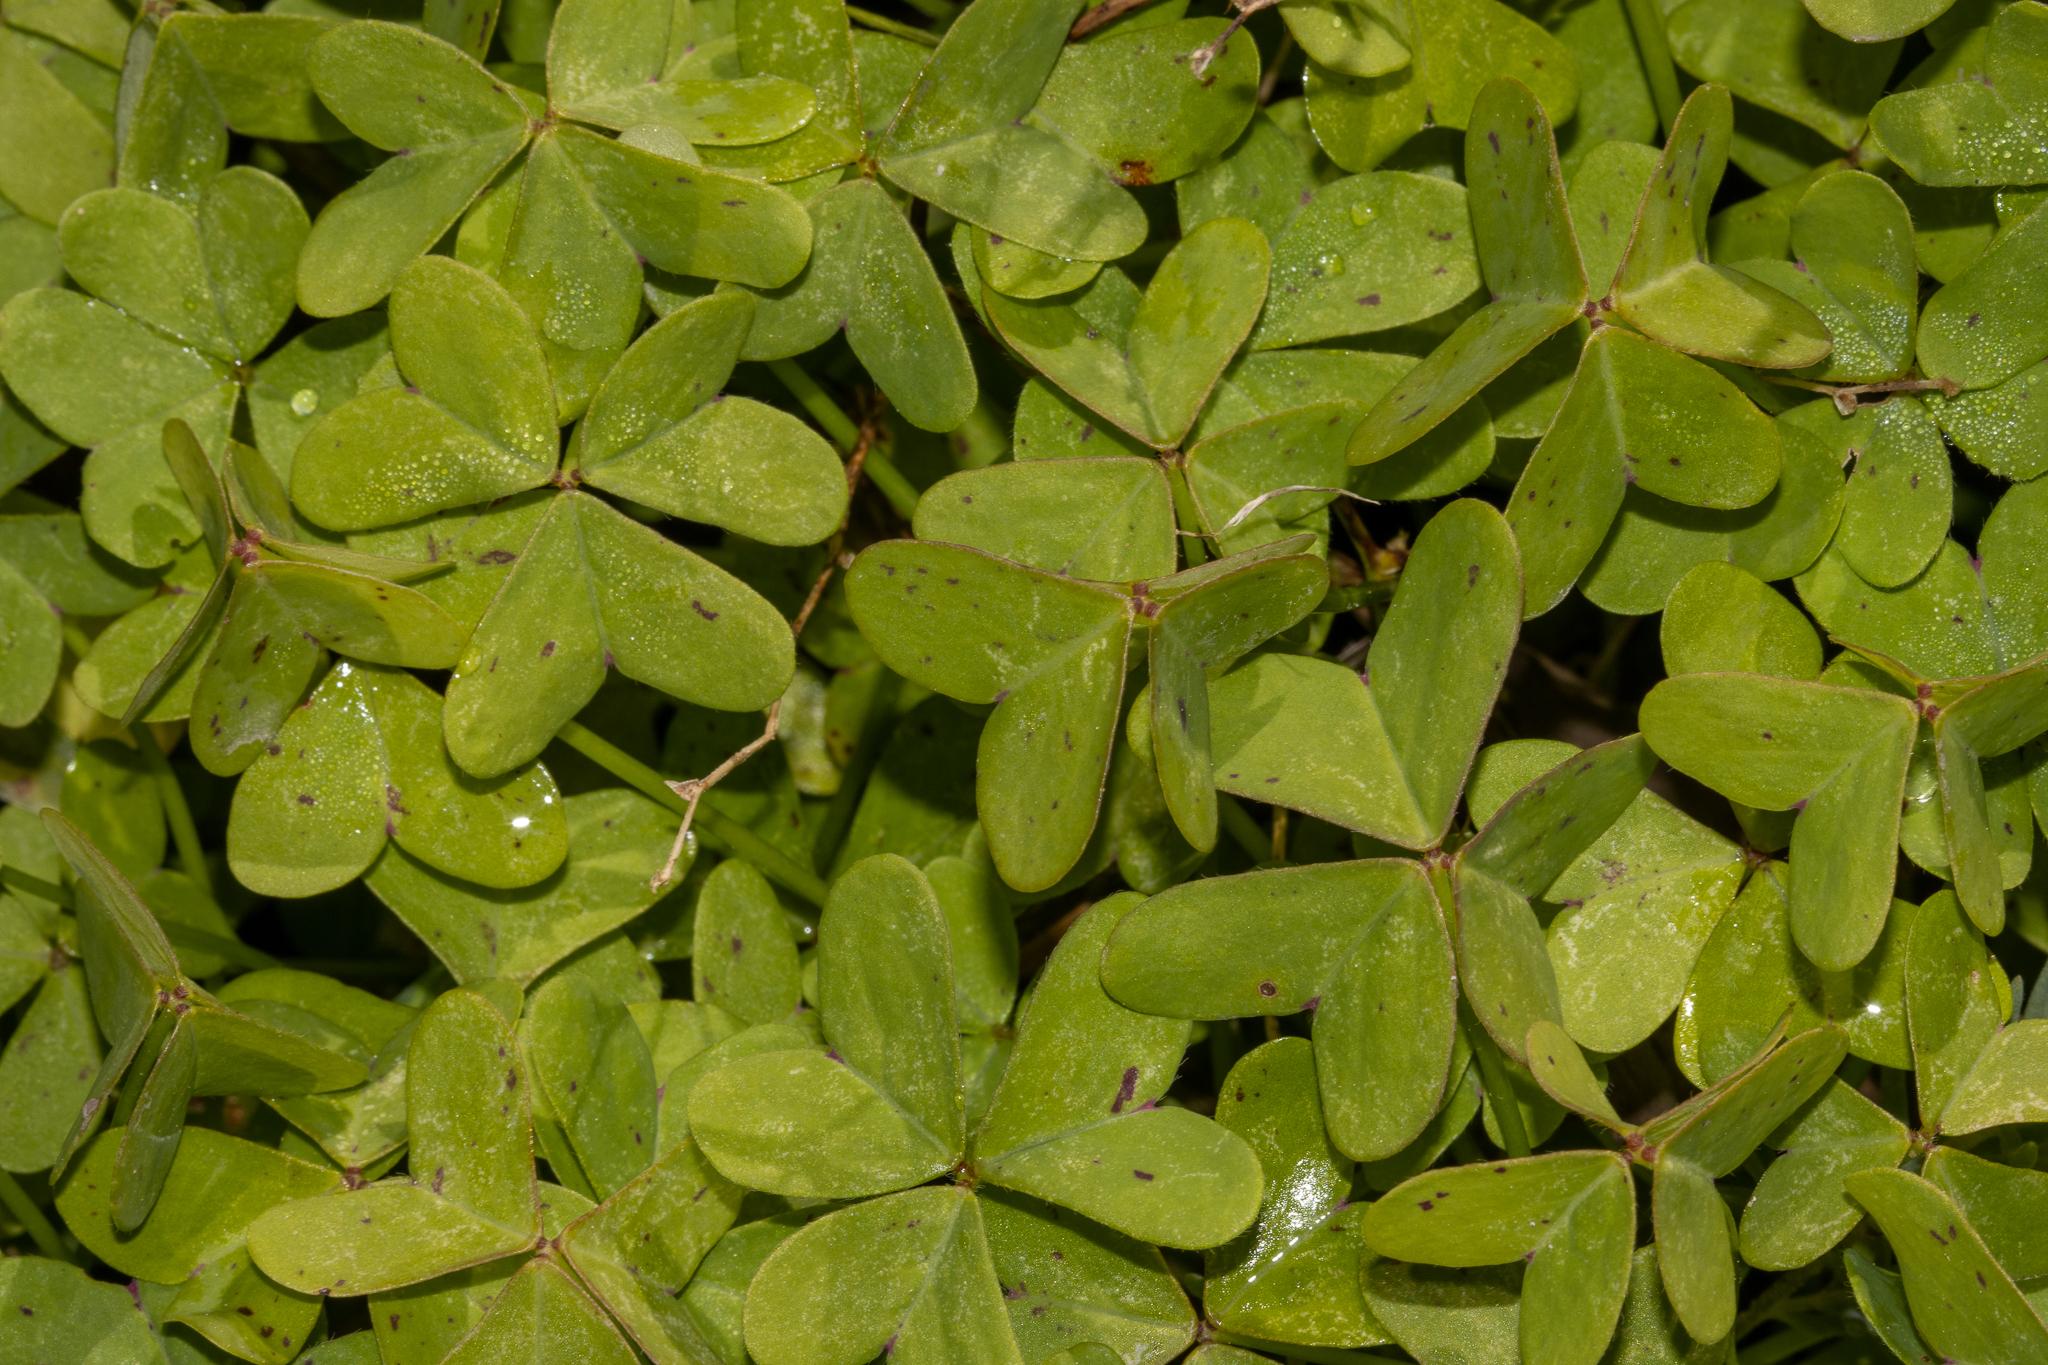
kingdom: Plantae
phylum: Tracheophyta
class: Magnoliopsida
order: Oxalidales
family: Oxalidaceae
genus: Oxalis
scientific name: Oxalis pes-caprae
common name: Bermuda-buttercup
